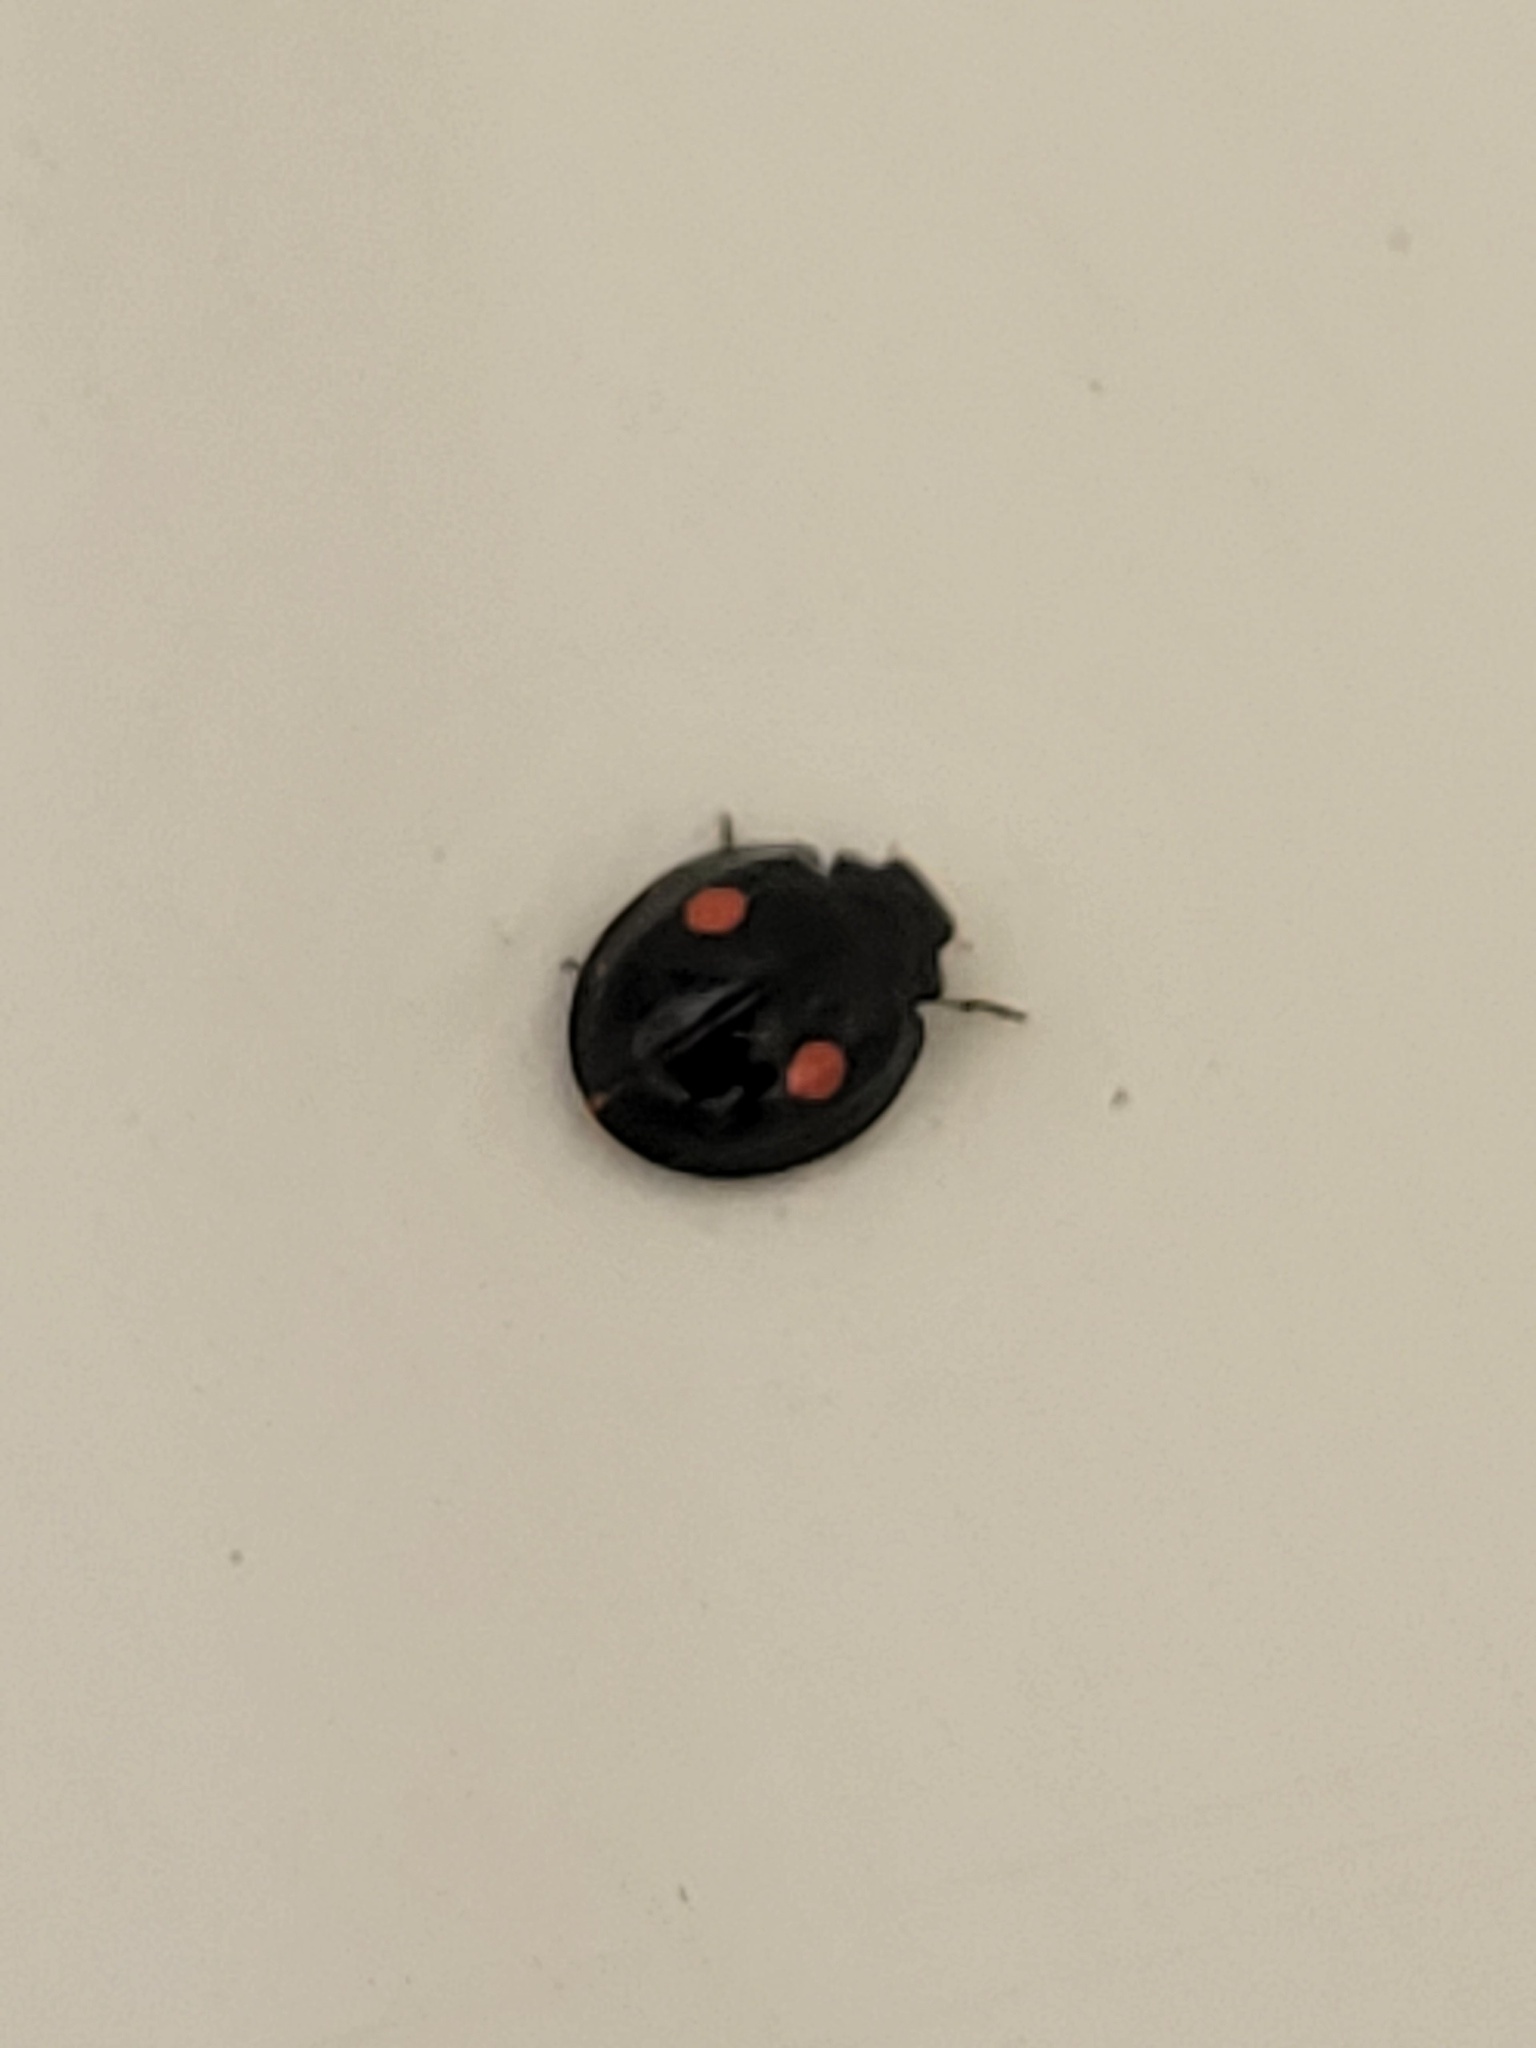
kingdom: Animalia
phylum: Arthropoda
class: Insecta
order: Coleoptera
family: Coccinellidae
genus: Chilocorus
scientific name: Chilocorus stigma
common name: Twicestabbed lady beetle
